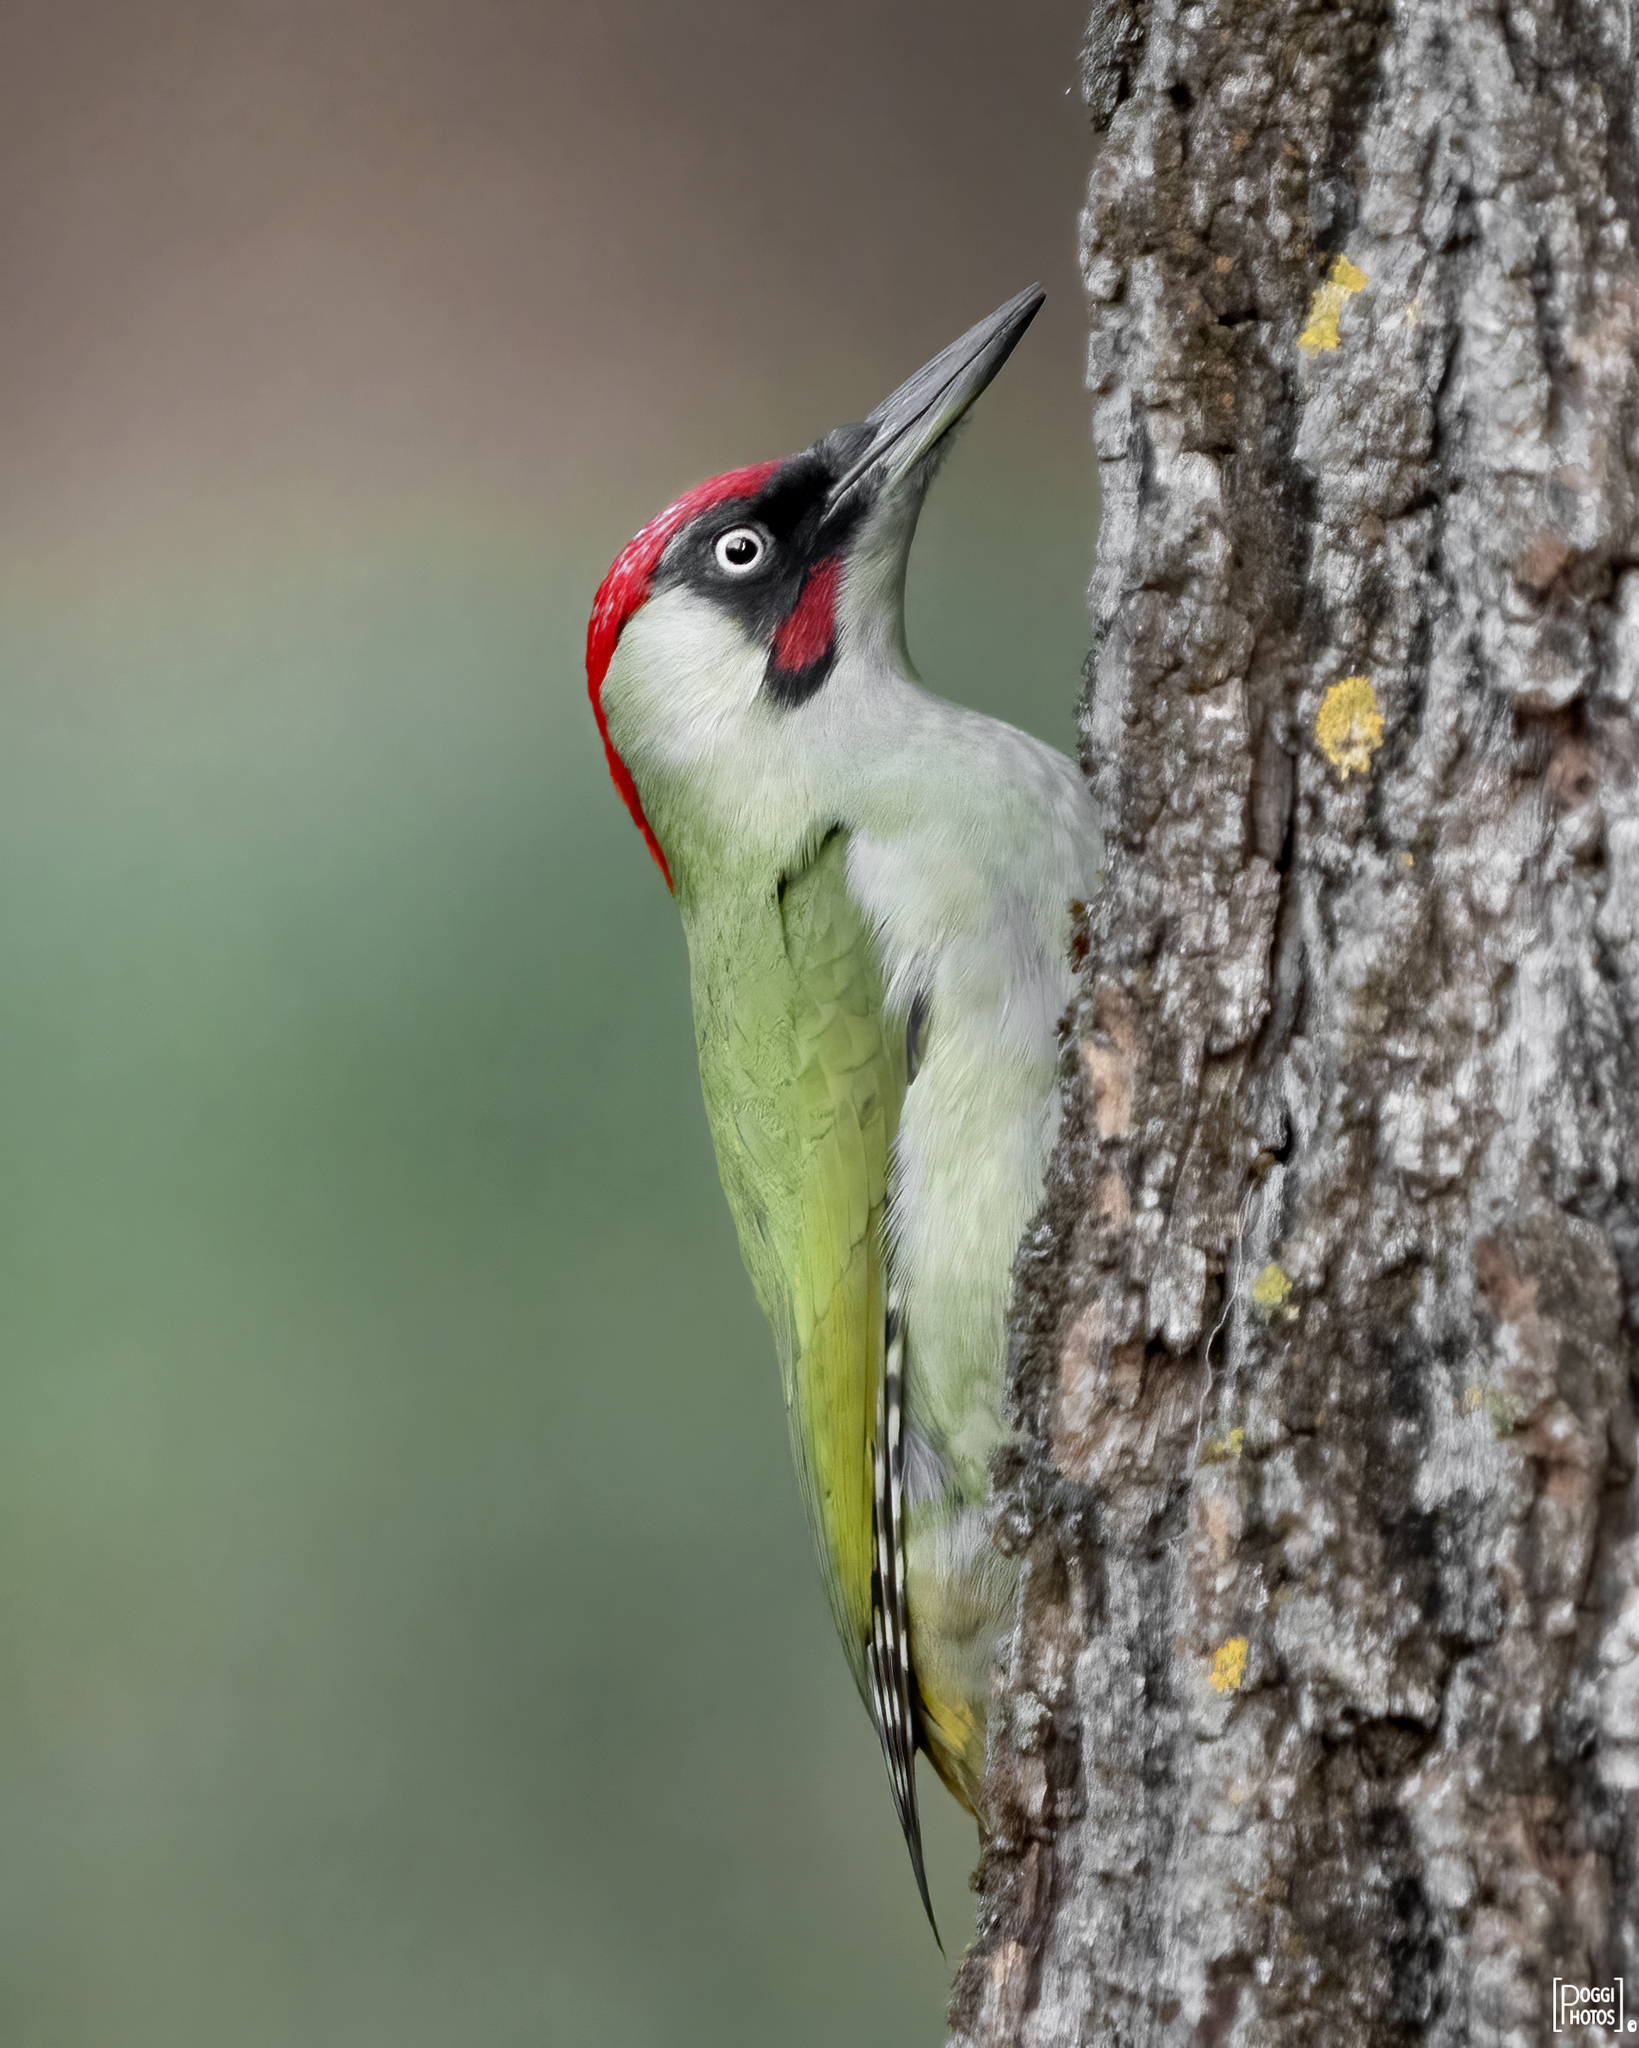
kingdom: Animalia
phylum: Chordata
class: Aves
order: Piciformes
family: Picidae
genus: Picus
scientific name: Picus viridis
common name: European green woodpecker
